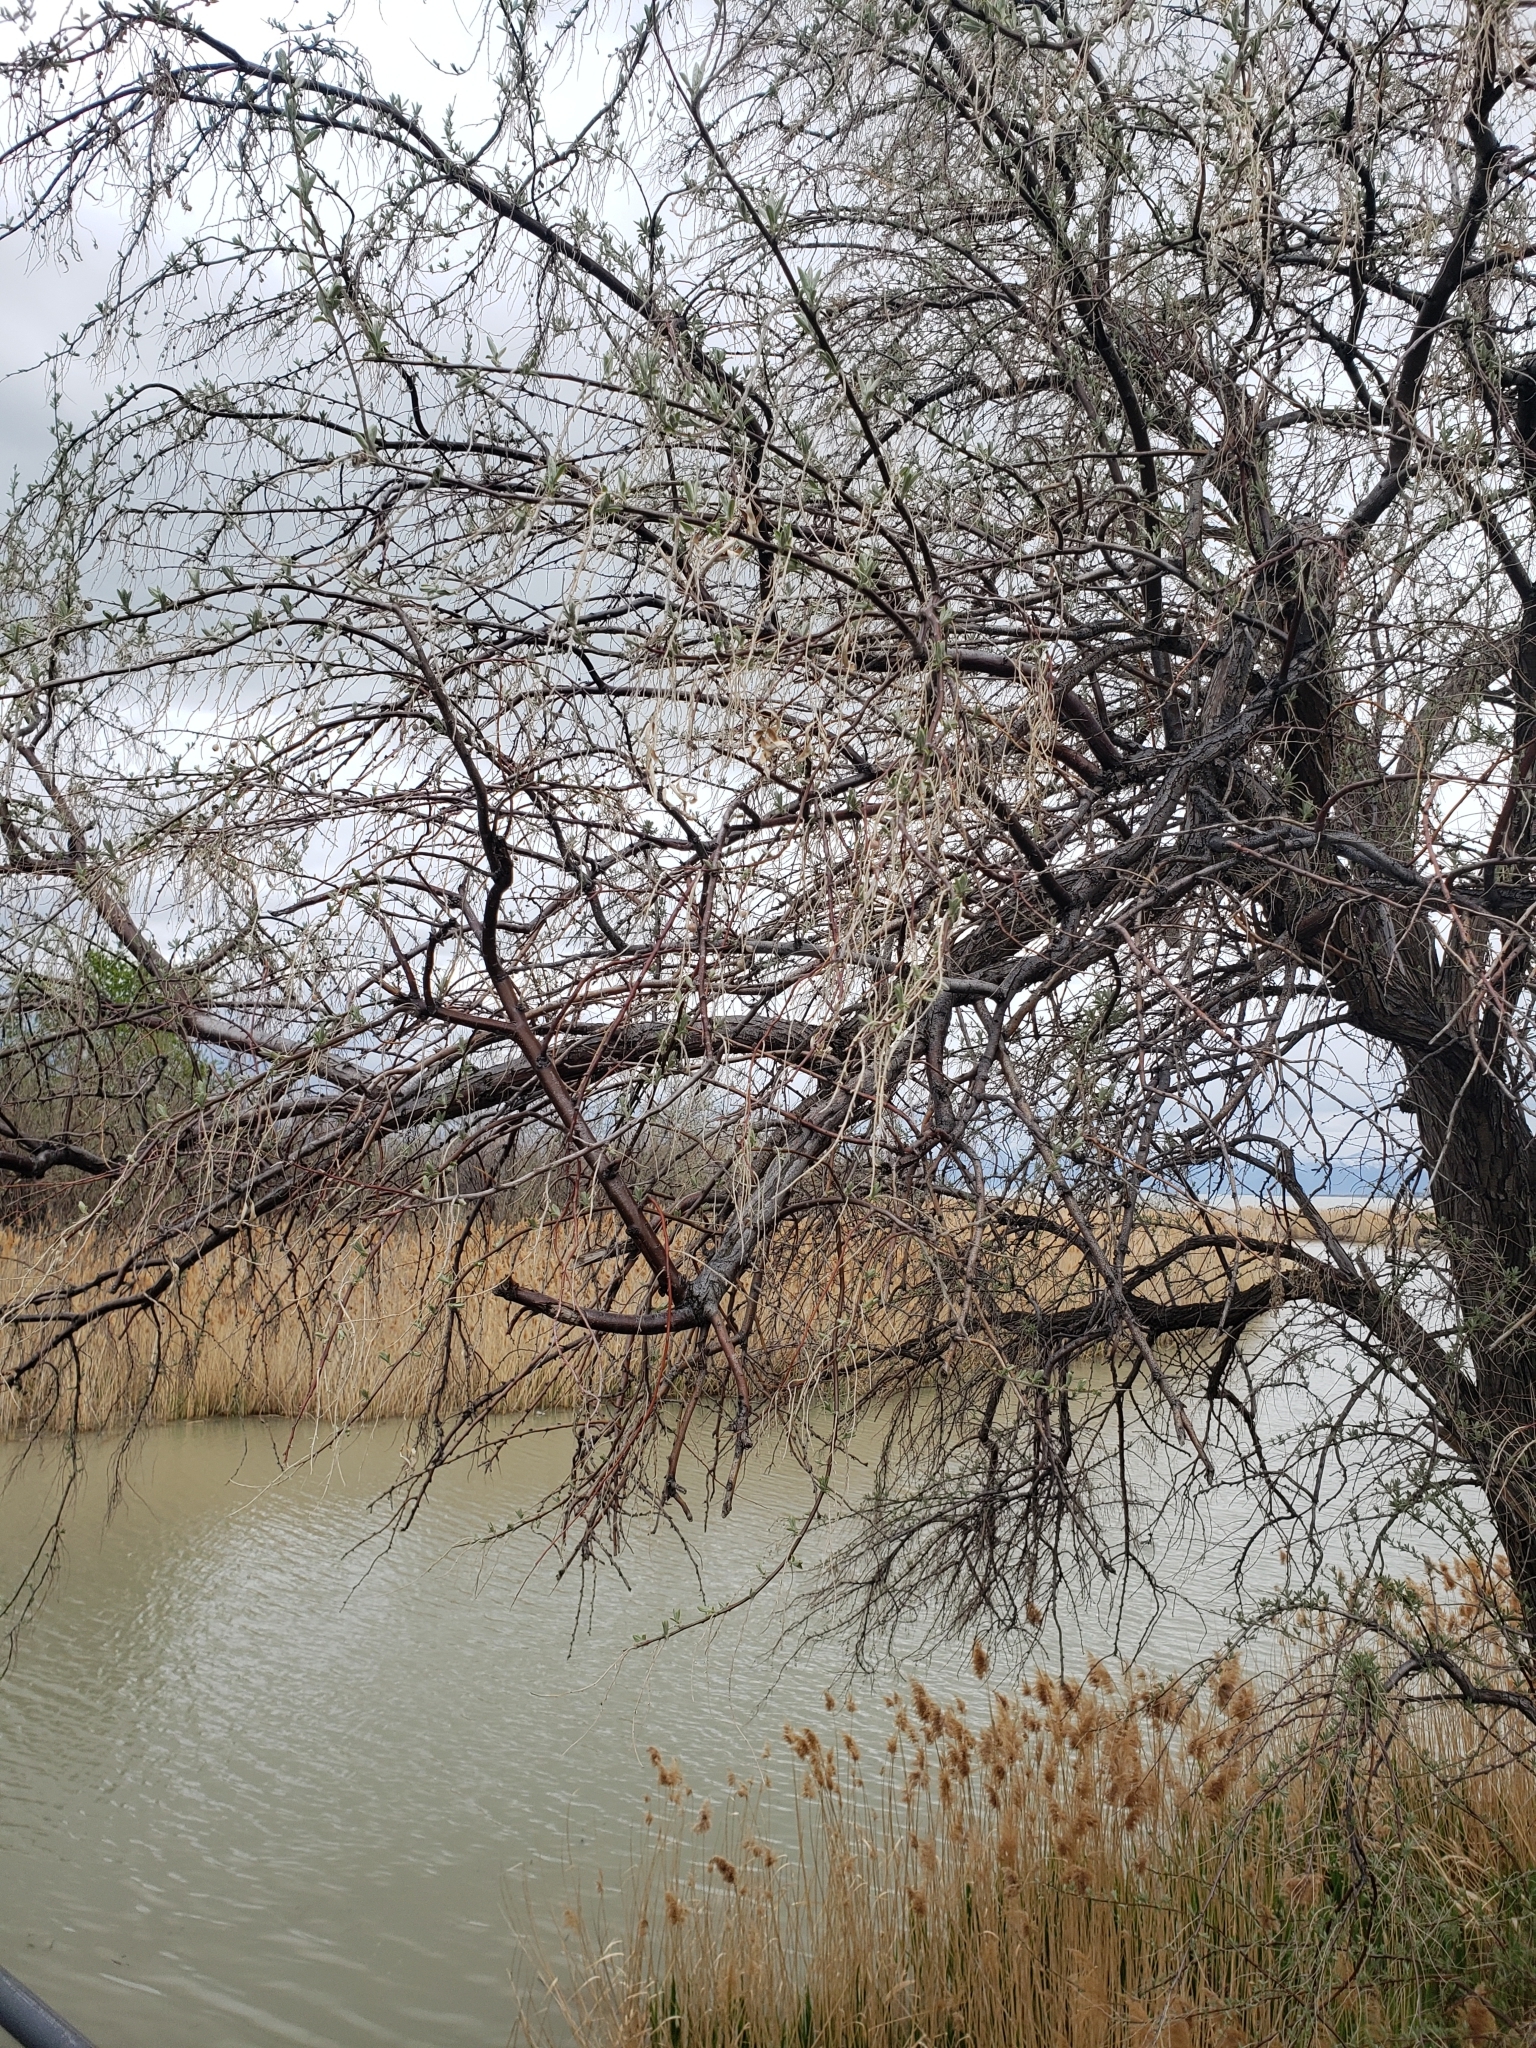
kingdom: Plantae
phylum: Tracheophyta
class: Magnoliopsida
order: Rosales
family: Elaeagnaceae
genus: Elaeagnus
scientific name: Elaeagnus angustifolia
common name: Russian olive
